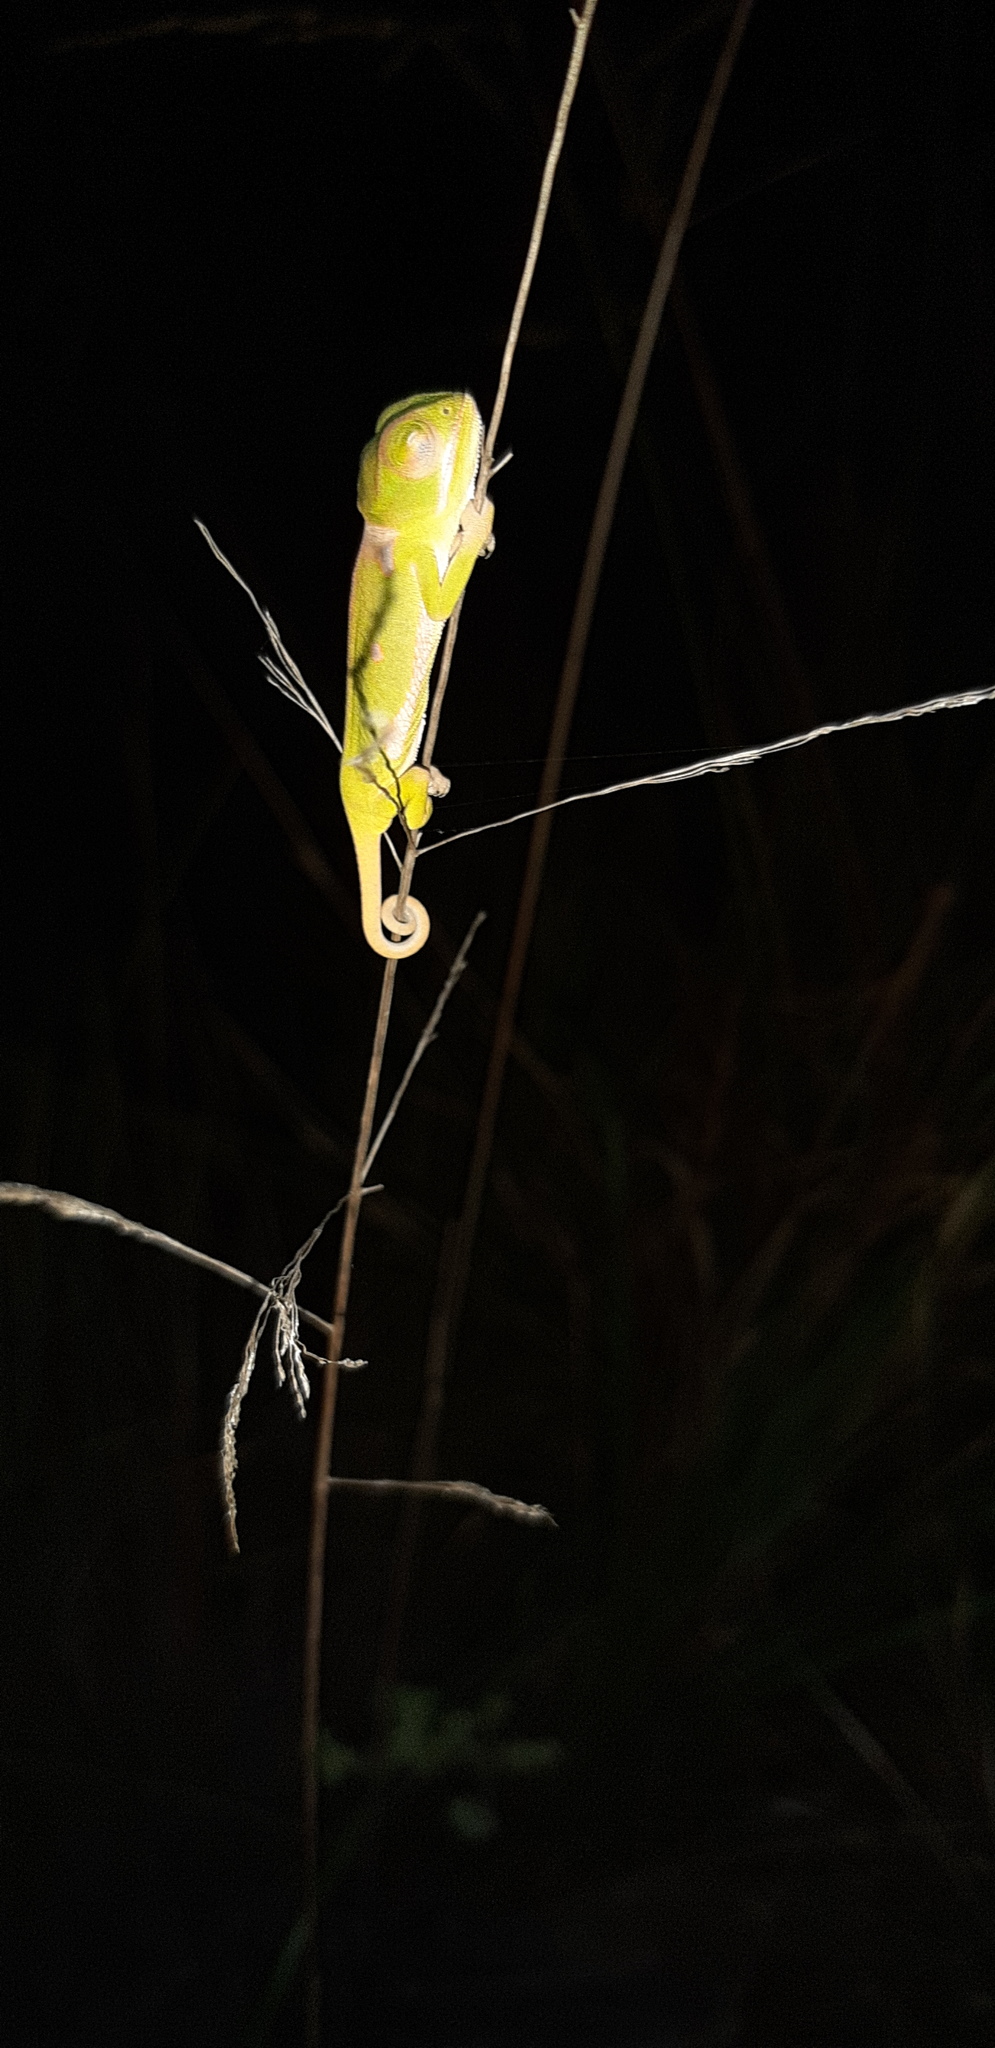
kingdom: Animalia
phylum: Chordata
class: Squamata
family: Chamaeleonidae
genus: Chamaeleo
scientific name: Chamaeleo dilepis
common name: Flapneck chameleon
